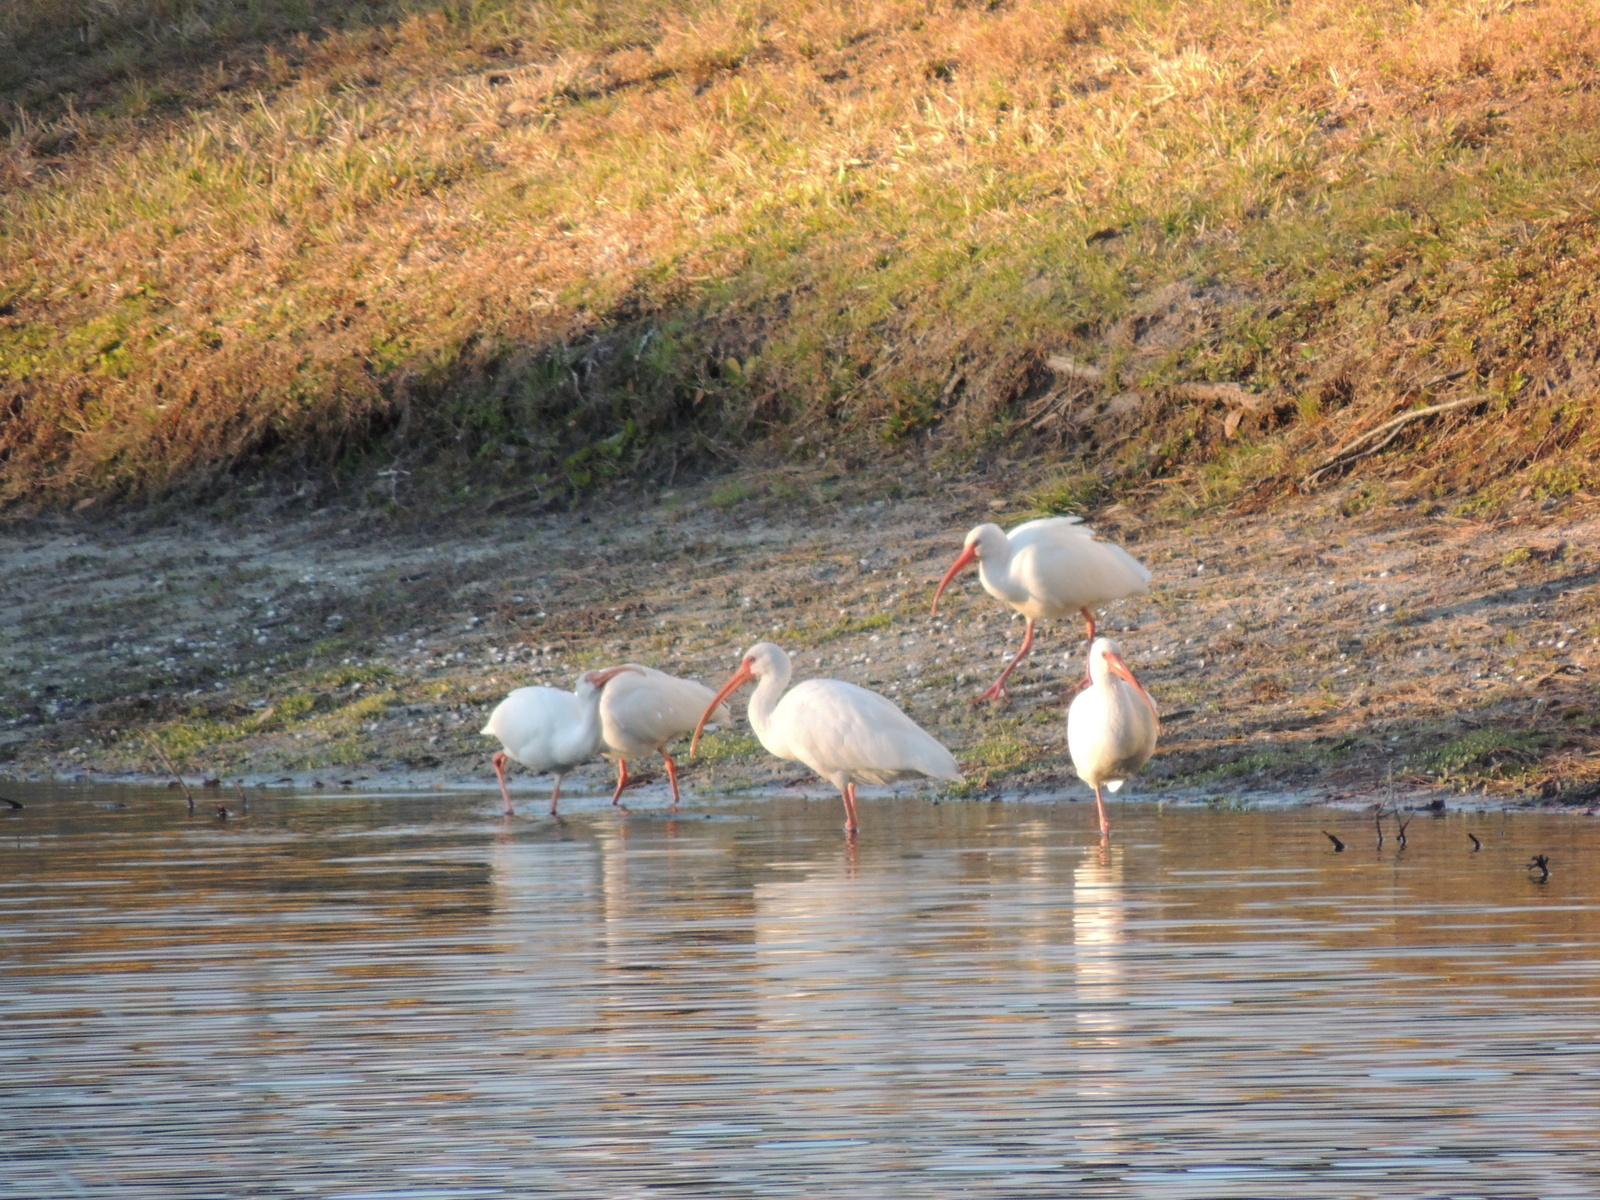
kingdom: Animalia
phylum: Chordata
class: Aves
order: Pelecaniformes
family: Threskiornithidae
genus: Eudocimus
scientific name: Eudocimus albus
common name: White ibis
